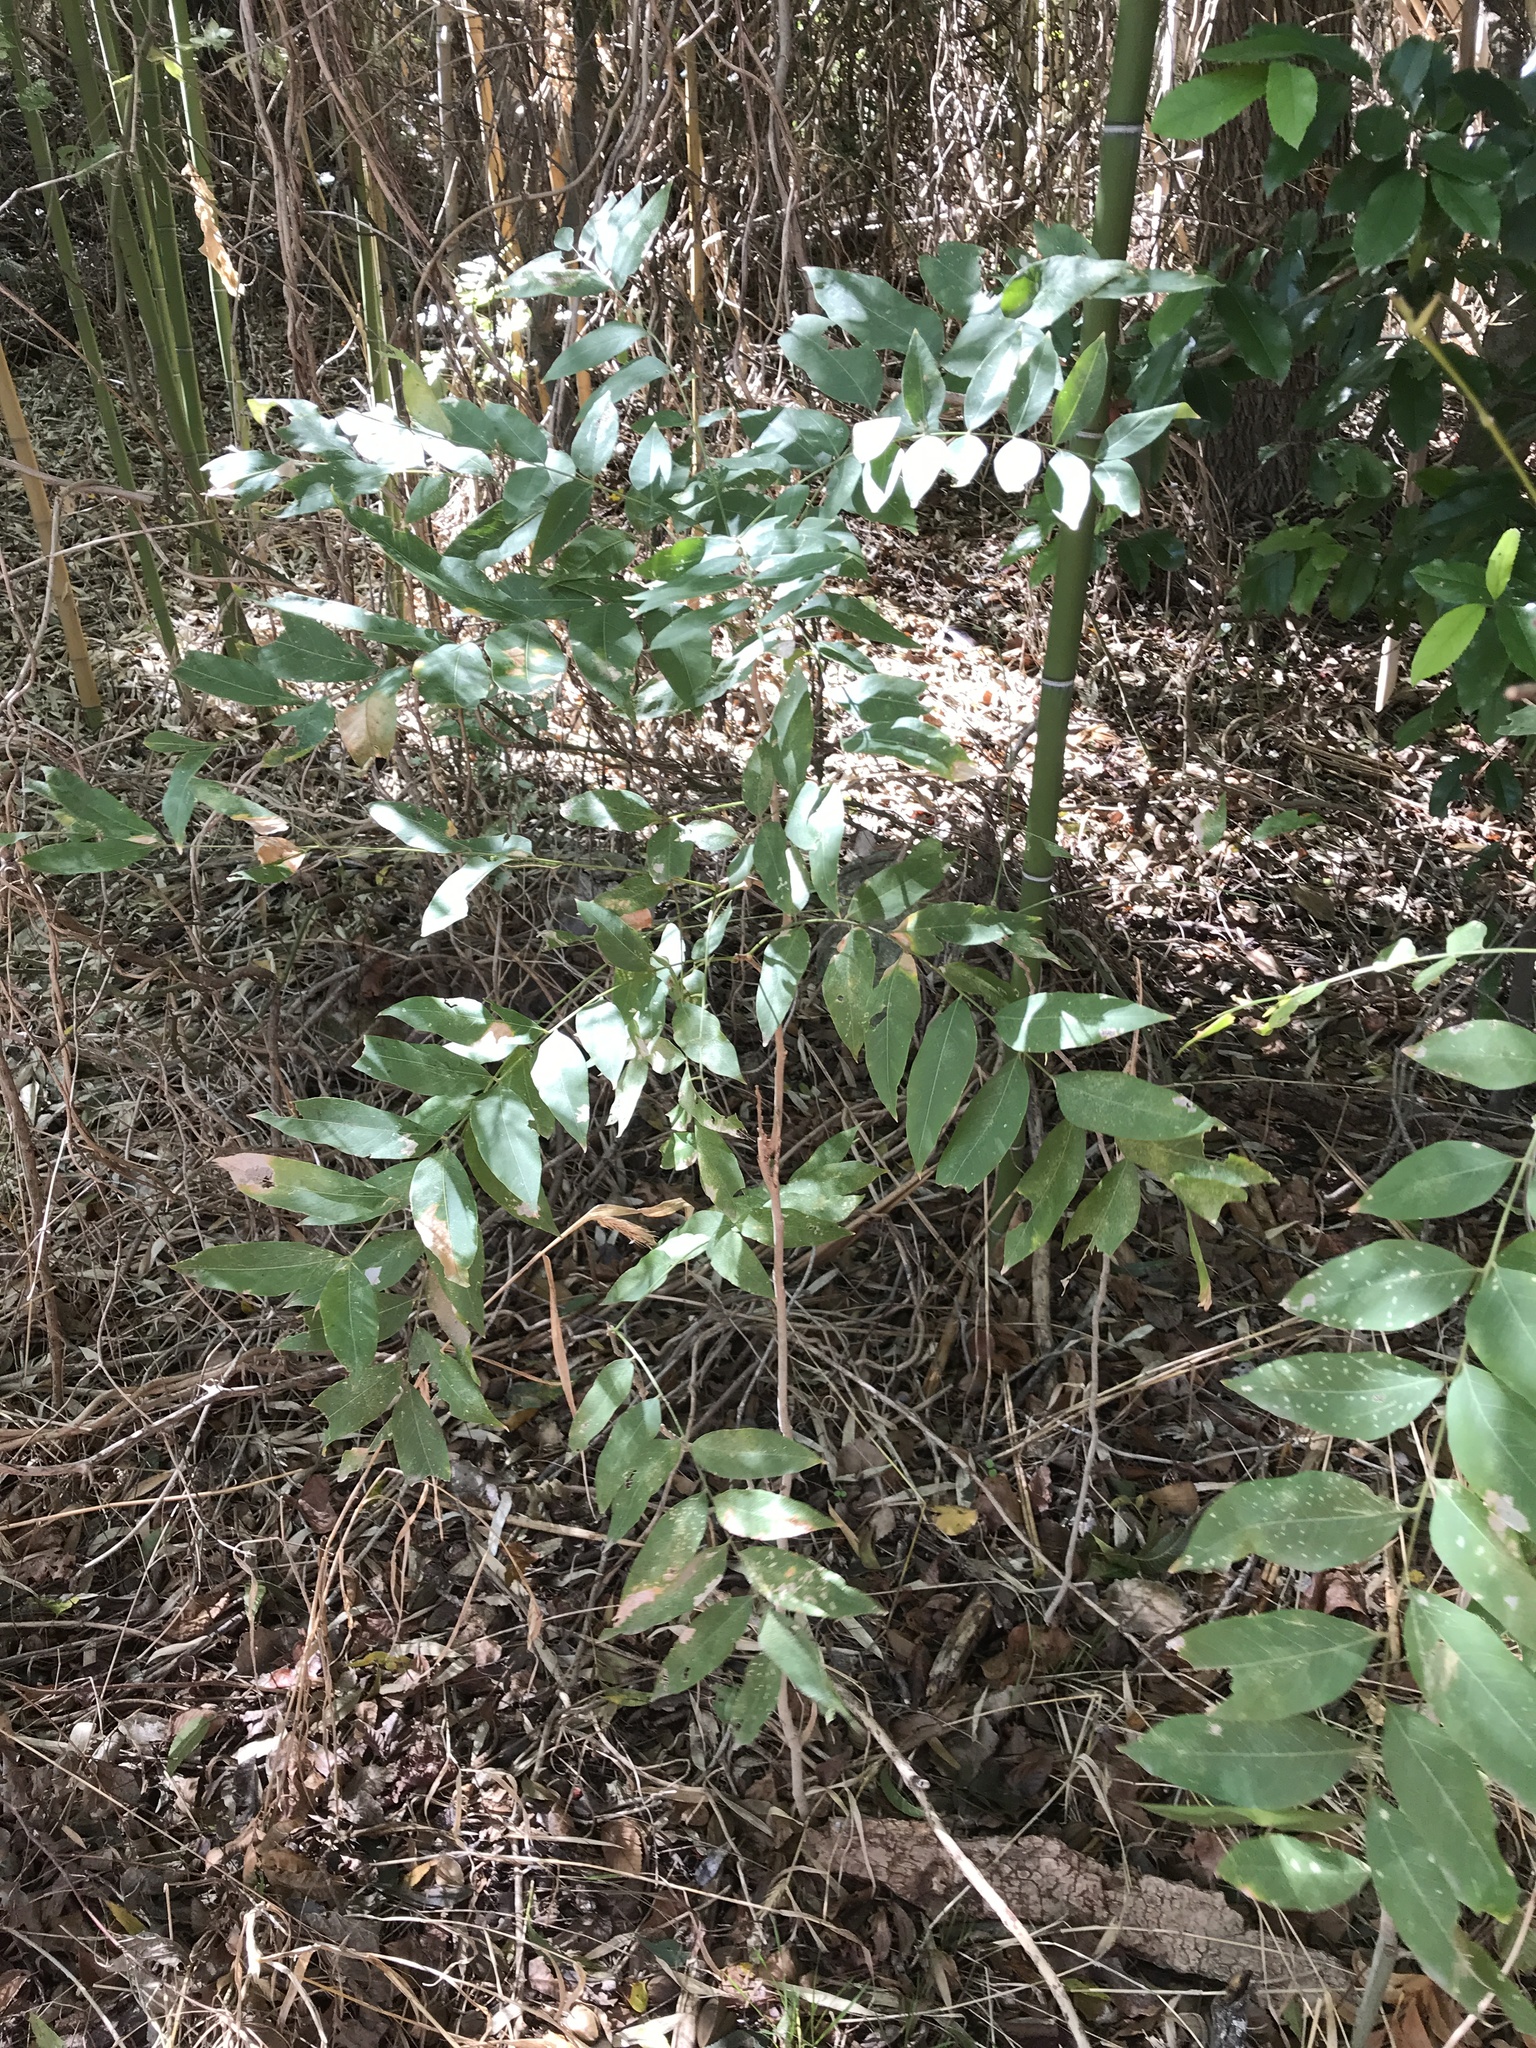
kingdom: Plantae
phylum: Tracheophyta
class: Magnoliopsida
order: Sapindales
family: Sapindaceae
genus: Sapindus
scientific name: Sapindus drummondii
